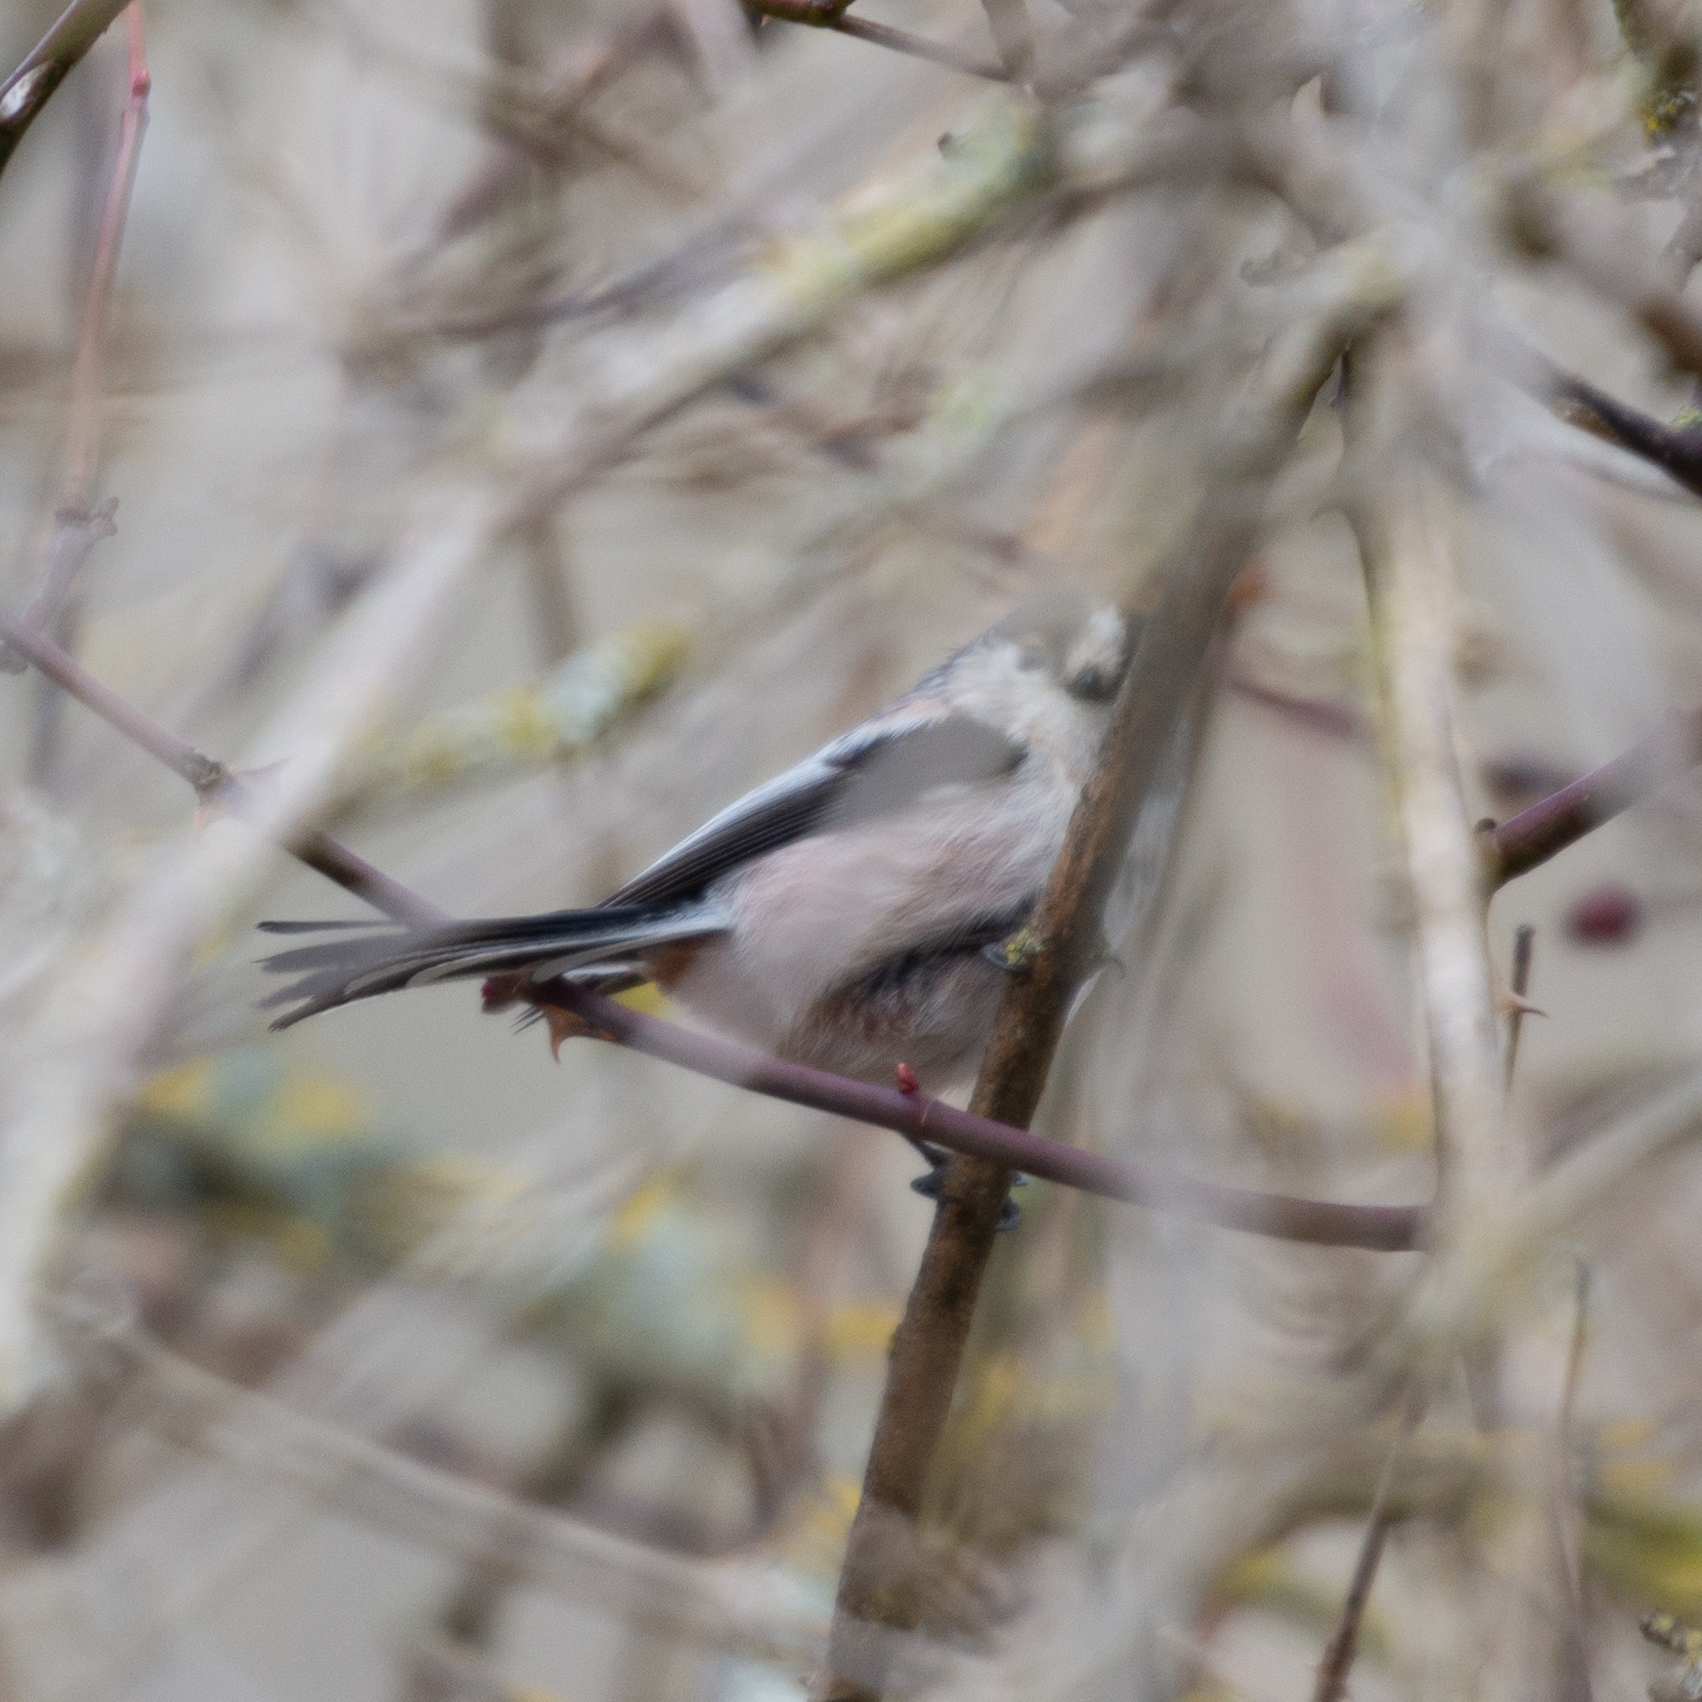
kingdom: Animalia
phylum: Chordata
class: Aves
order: Passeriformes
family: Aegithalidae
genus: Aegithalos
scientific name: Aegithalos caudatus
